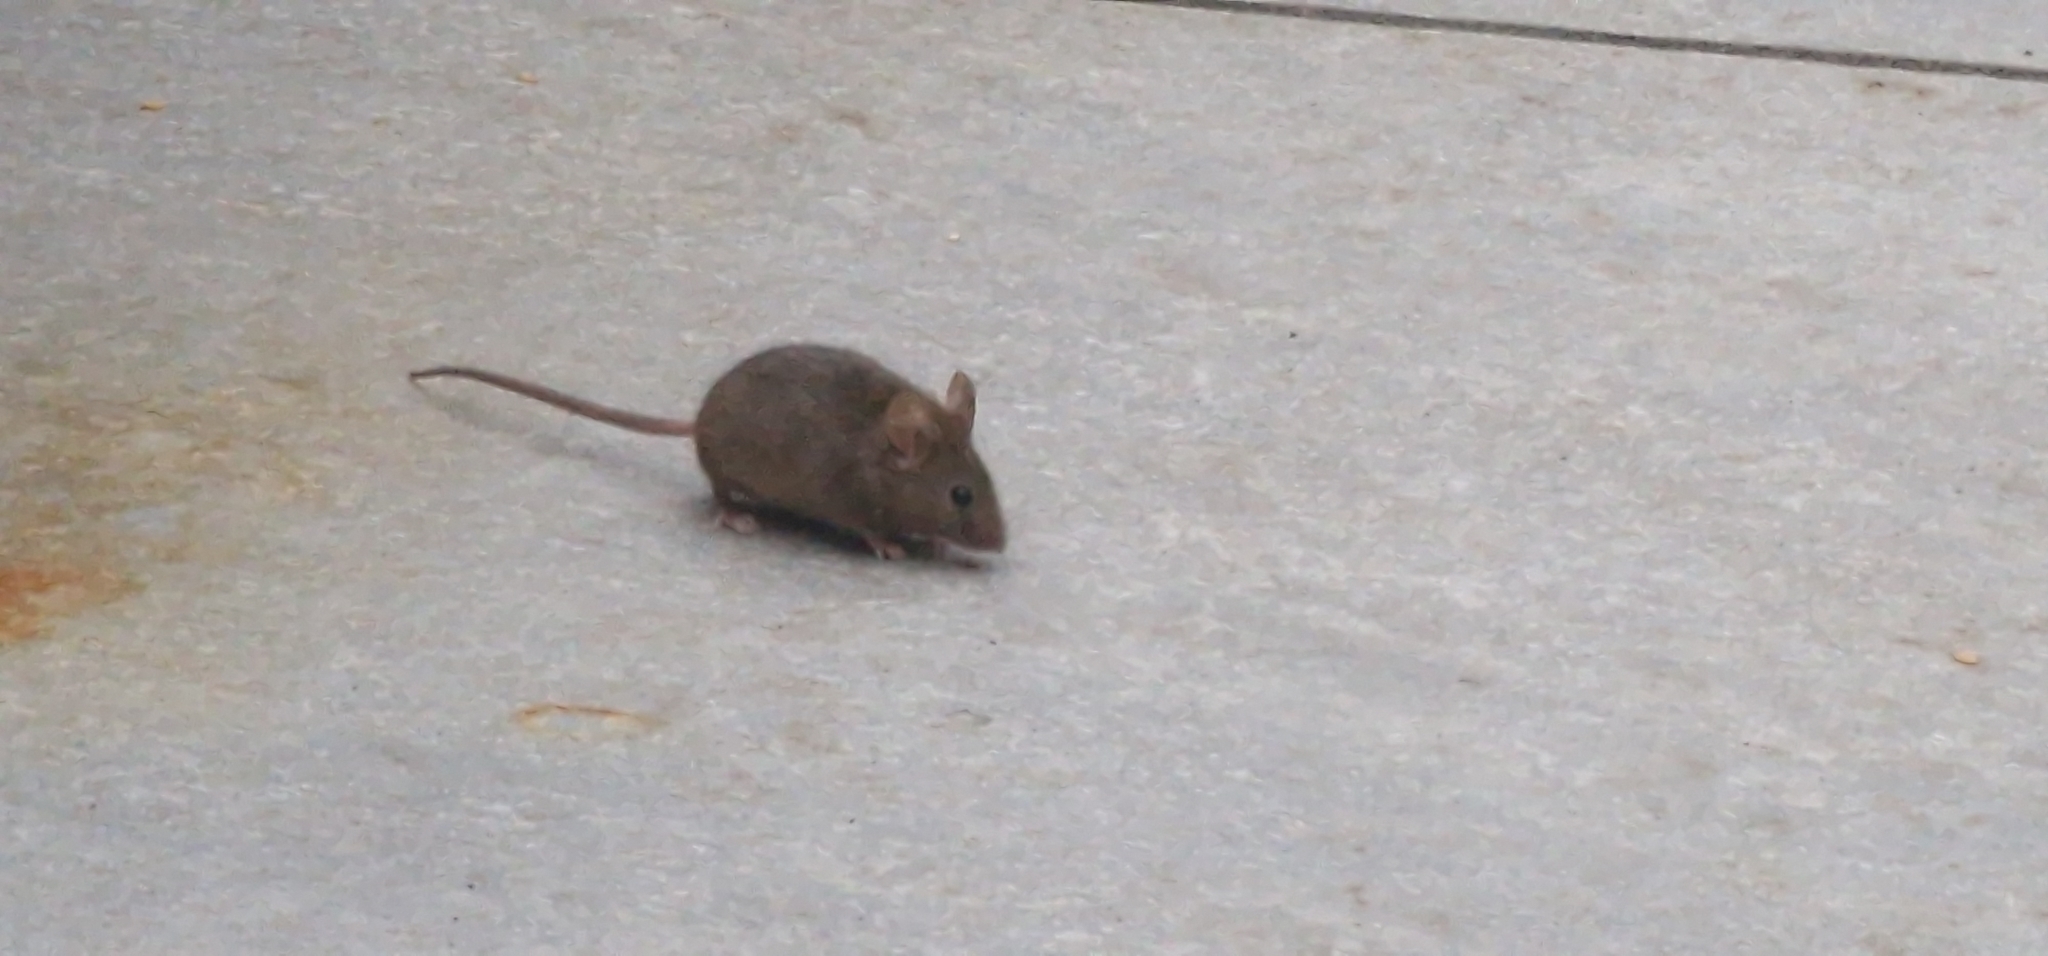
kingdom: Animalia
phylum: Chordata
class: Mammalia
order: Rodentia
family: Muridae
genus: Mus
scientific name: Mus musculus
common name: House mouse
